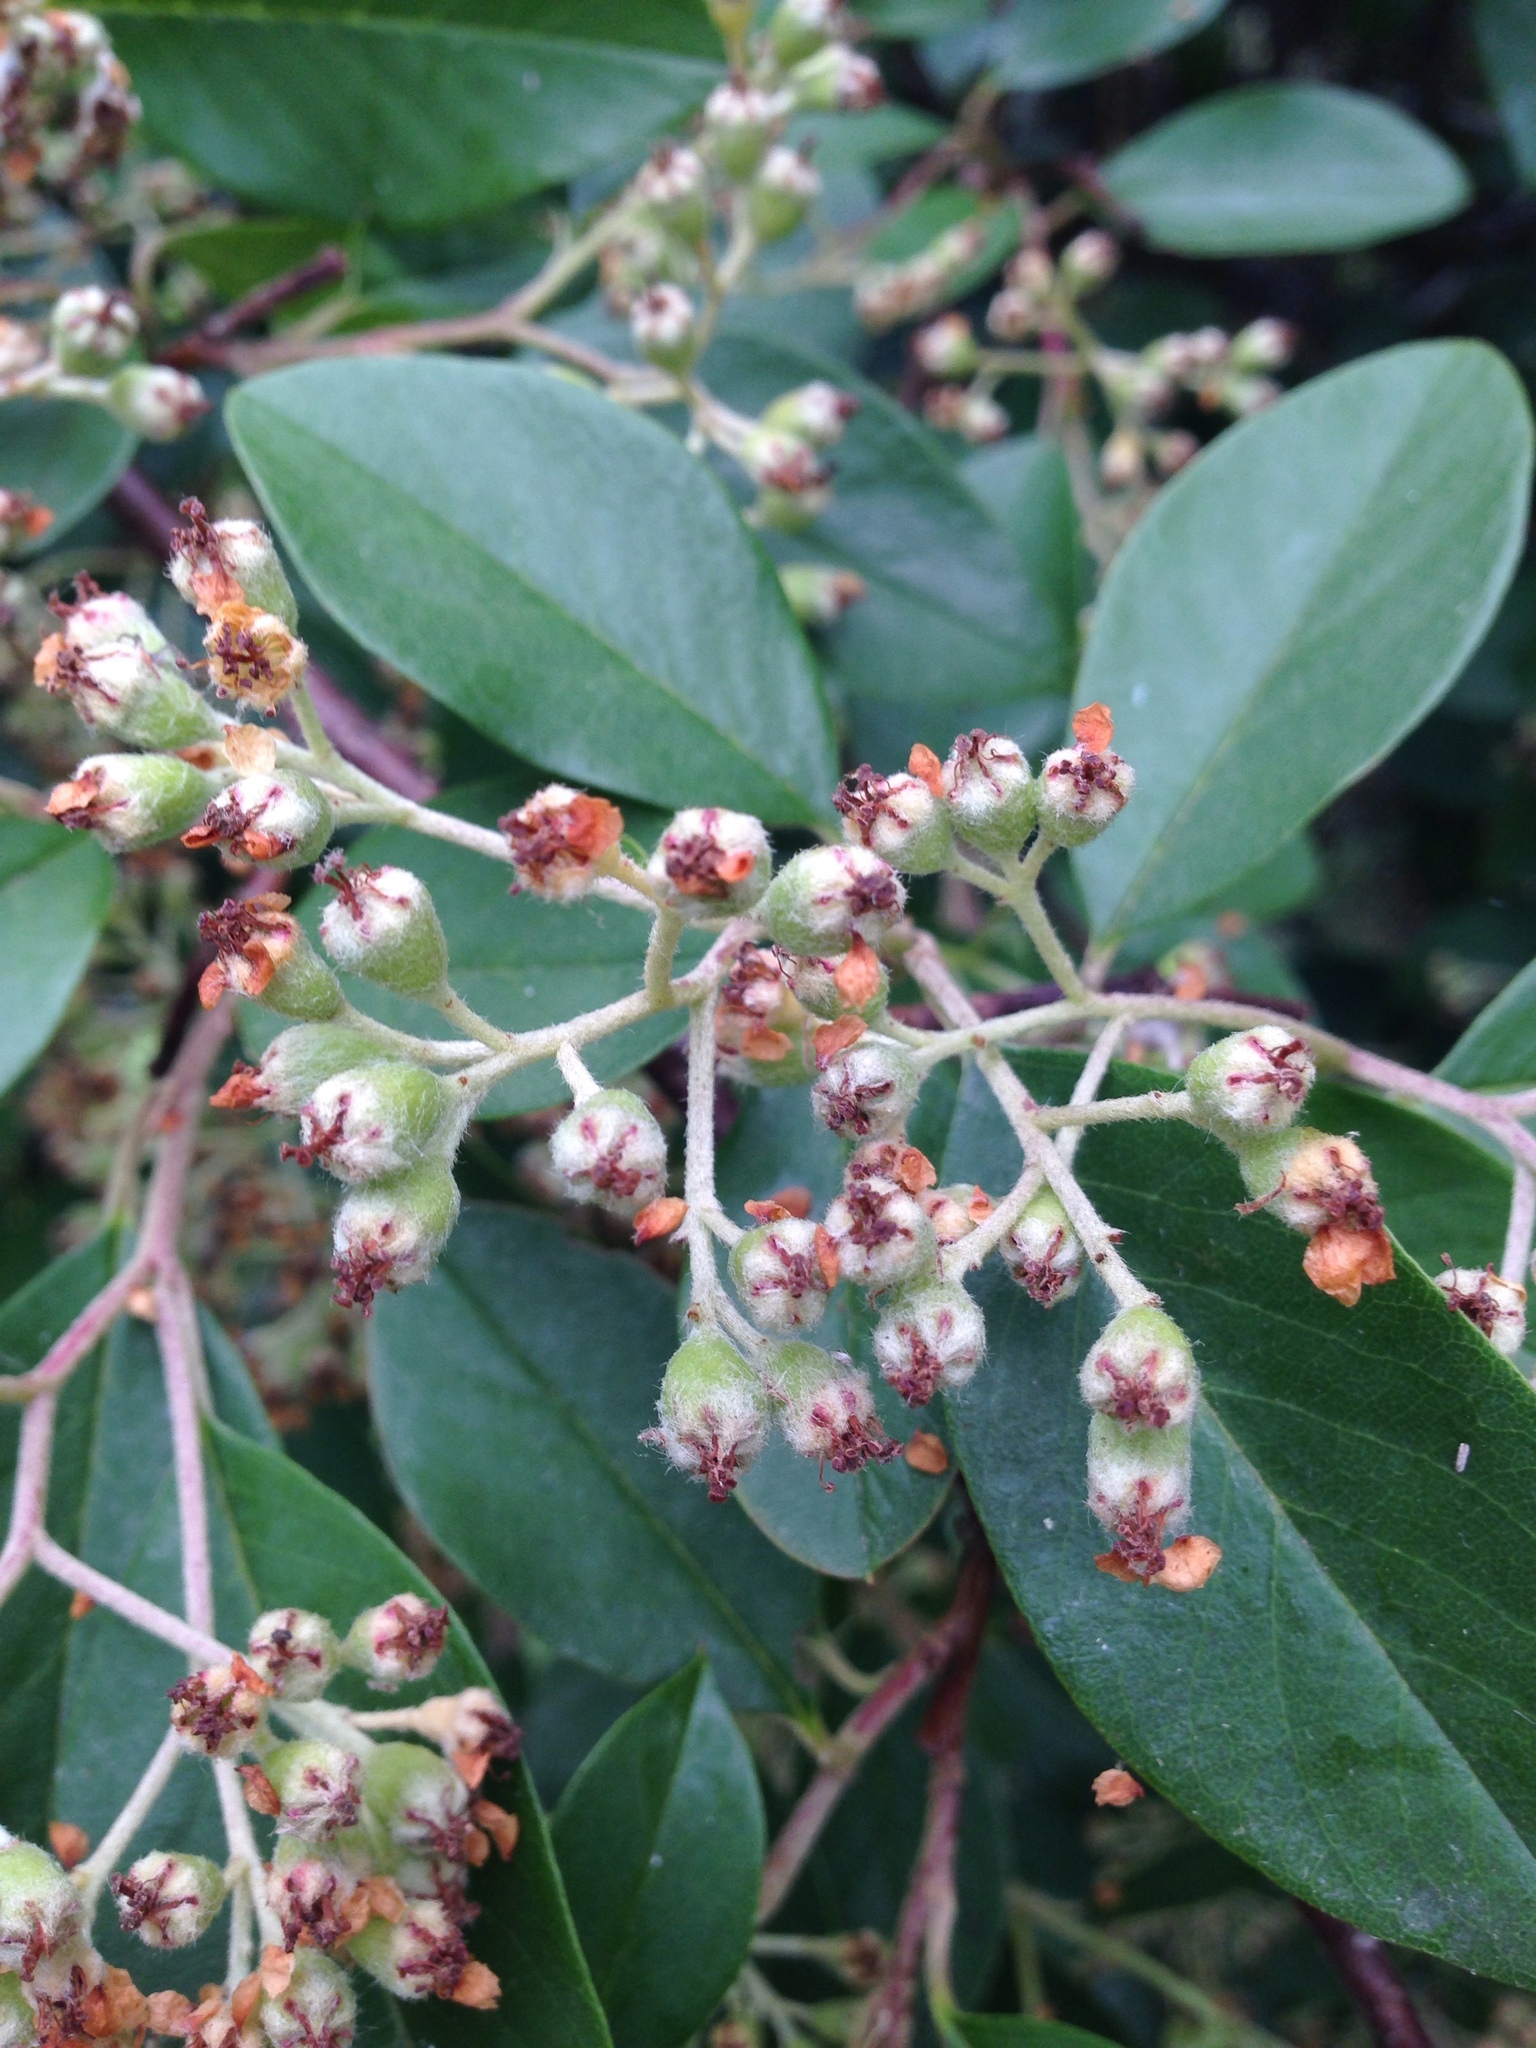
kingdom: Plantae
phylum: Tracheophyta
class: Magnoliopsida
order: Rosales
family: Rosaceae
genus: Cotoneaster
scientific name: Cotoneaster glaucophyllus
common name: Glaucous cotoneaster
